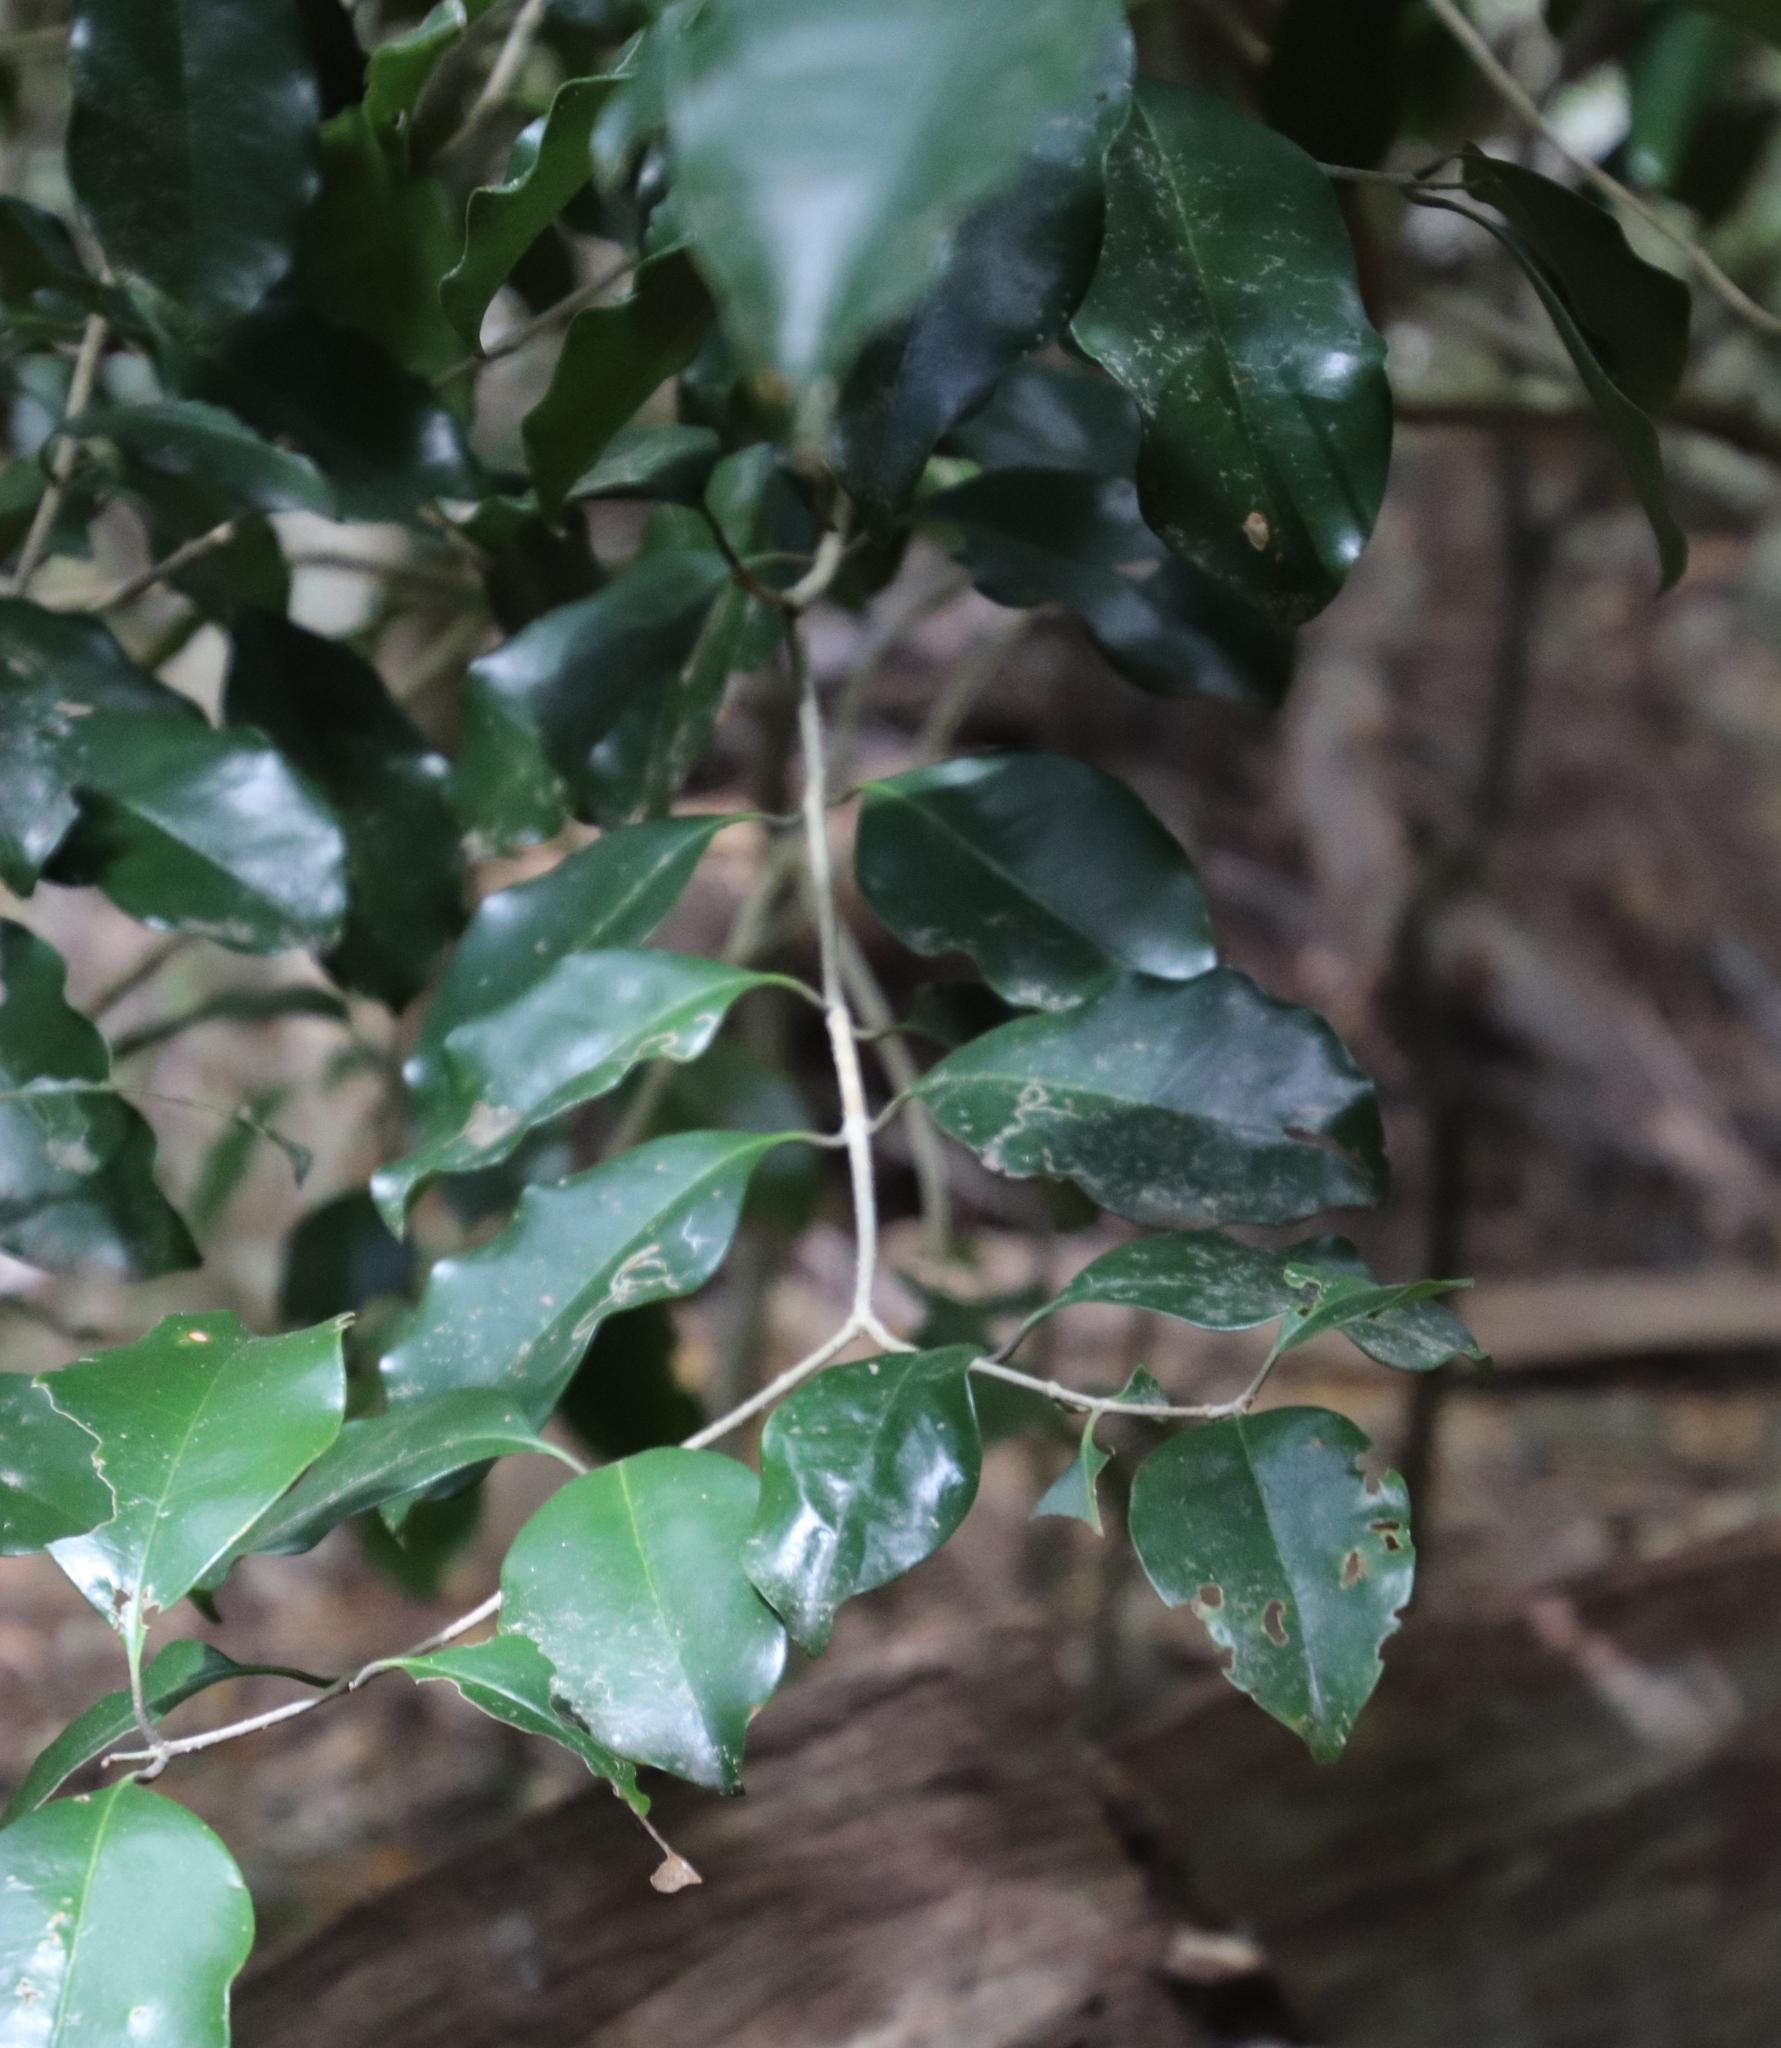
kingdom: Plantae
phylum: Tracheophyta
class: Magnoliopsida
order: Lamiales
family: Oleaceae
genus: Olea
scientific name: Olea capensis
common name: Black ironwood
